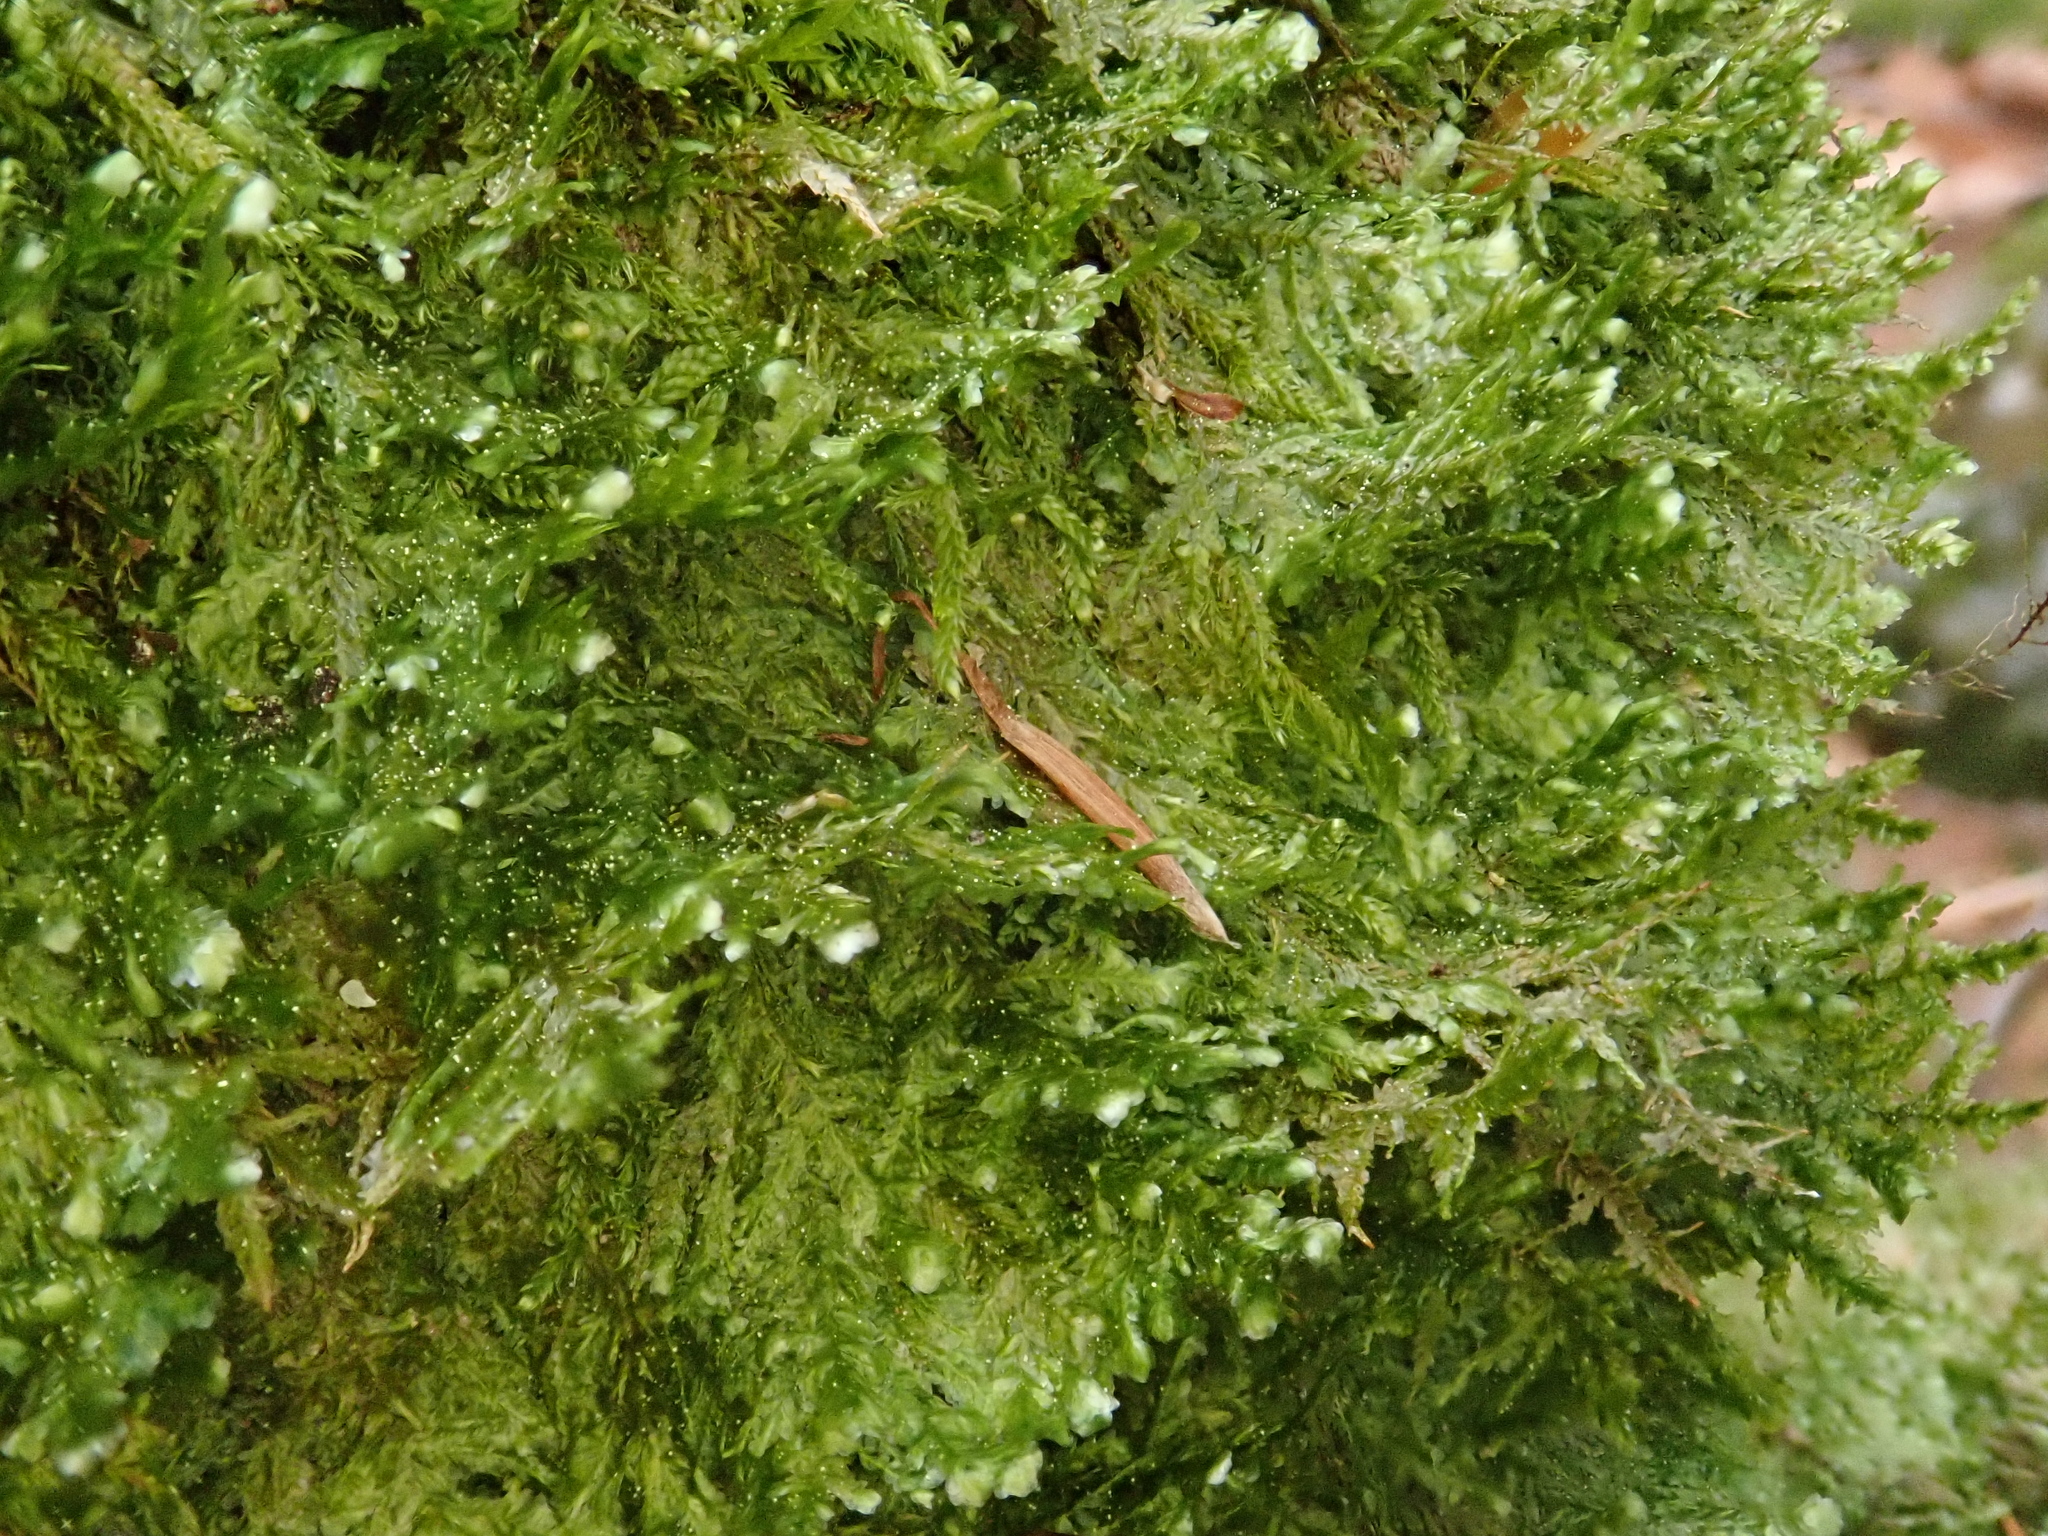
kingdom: Plantae
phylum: Bryophyta
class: Bryopsida
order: Hypnales
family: Neckeraceae
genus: Alleniella
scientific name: Alleniella besseri
